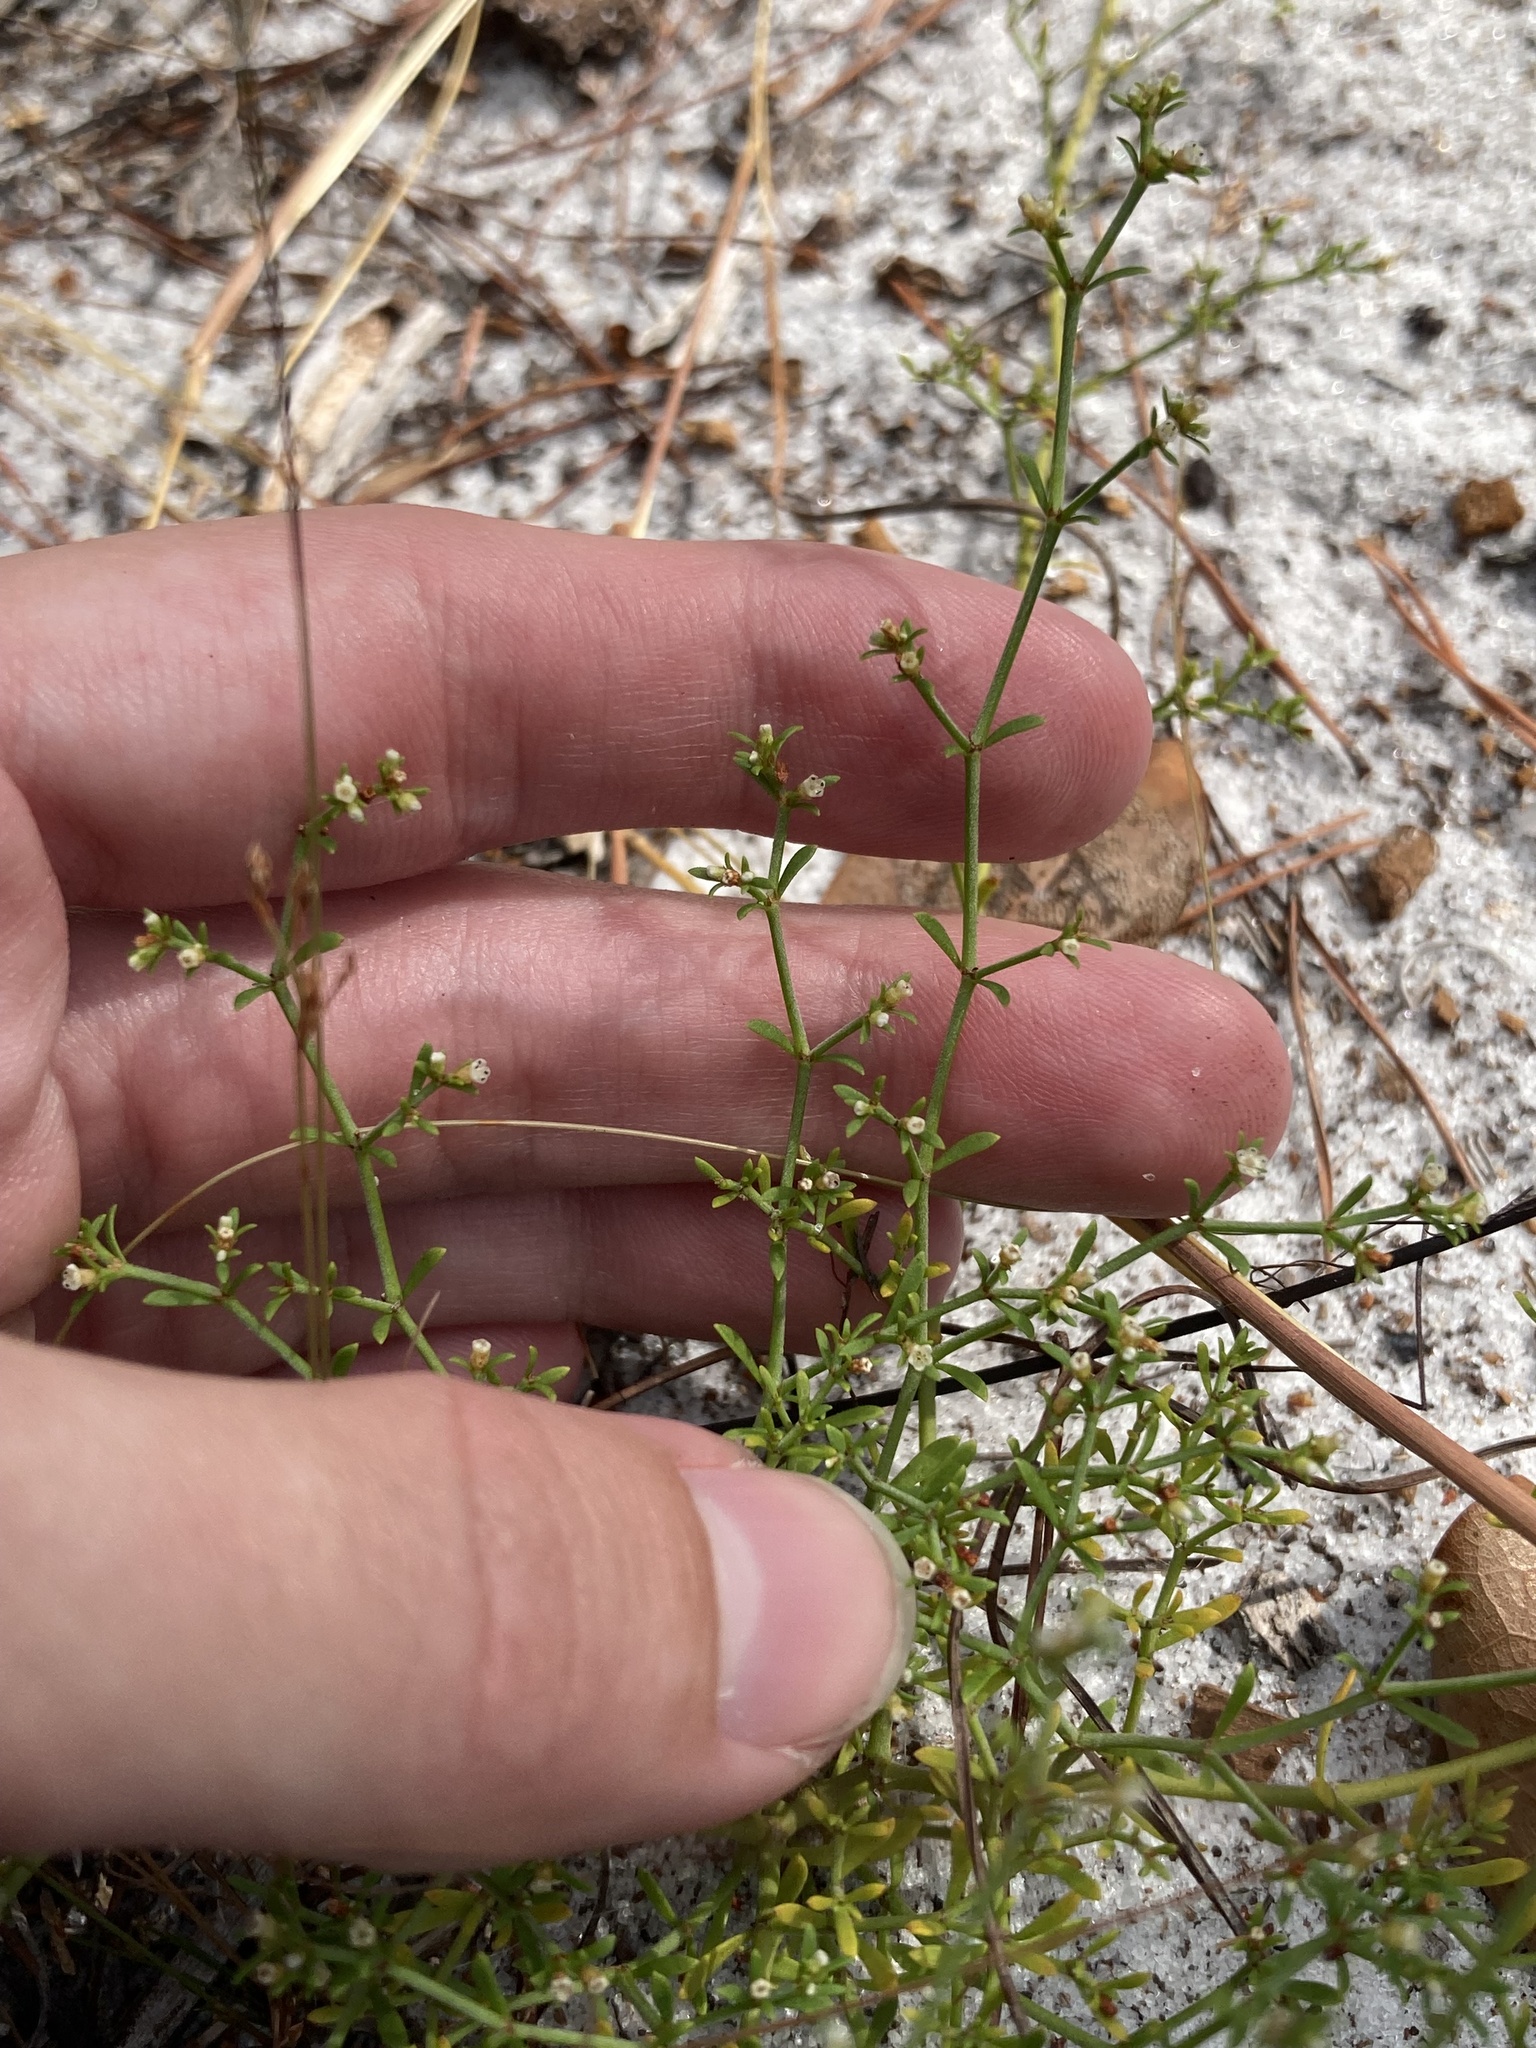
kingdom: Plantae
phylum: Tracheophyta
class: Magnoliopsida
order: Caryophyllales
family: Caryophyllaceae
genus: Paronychia
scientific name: Paronychia americana
